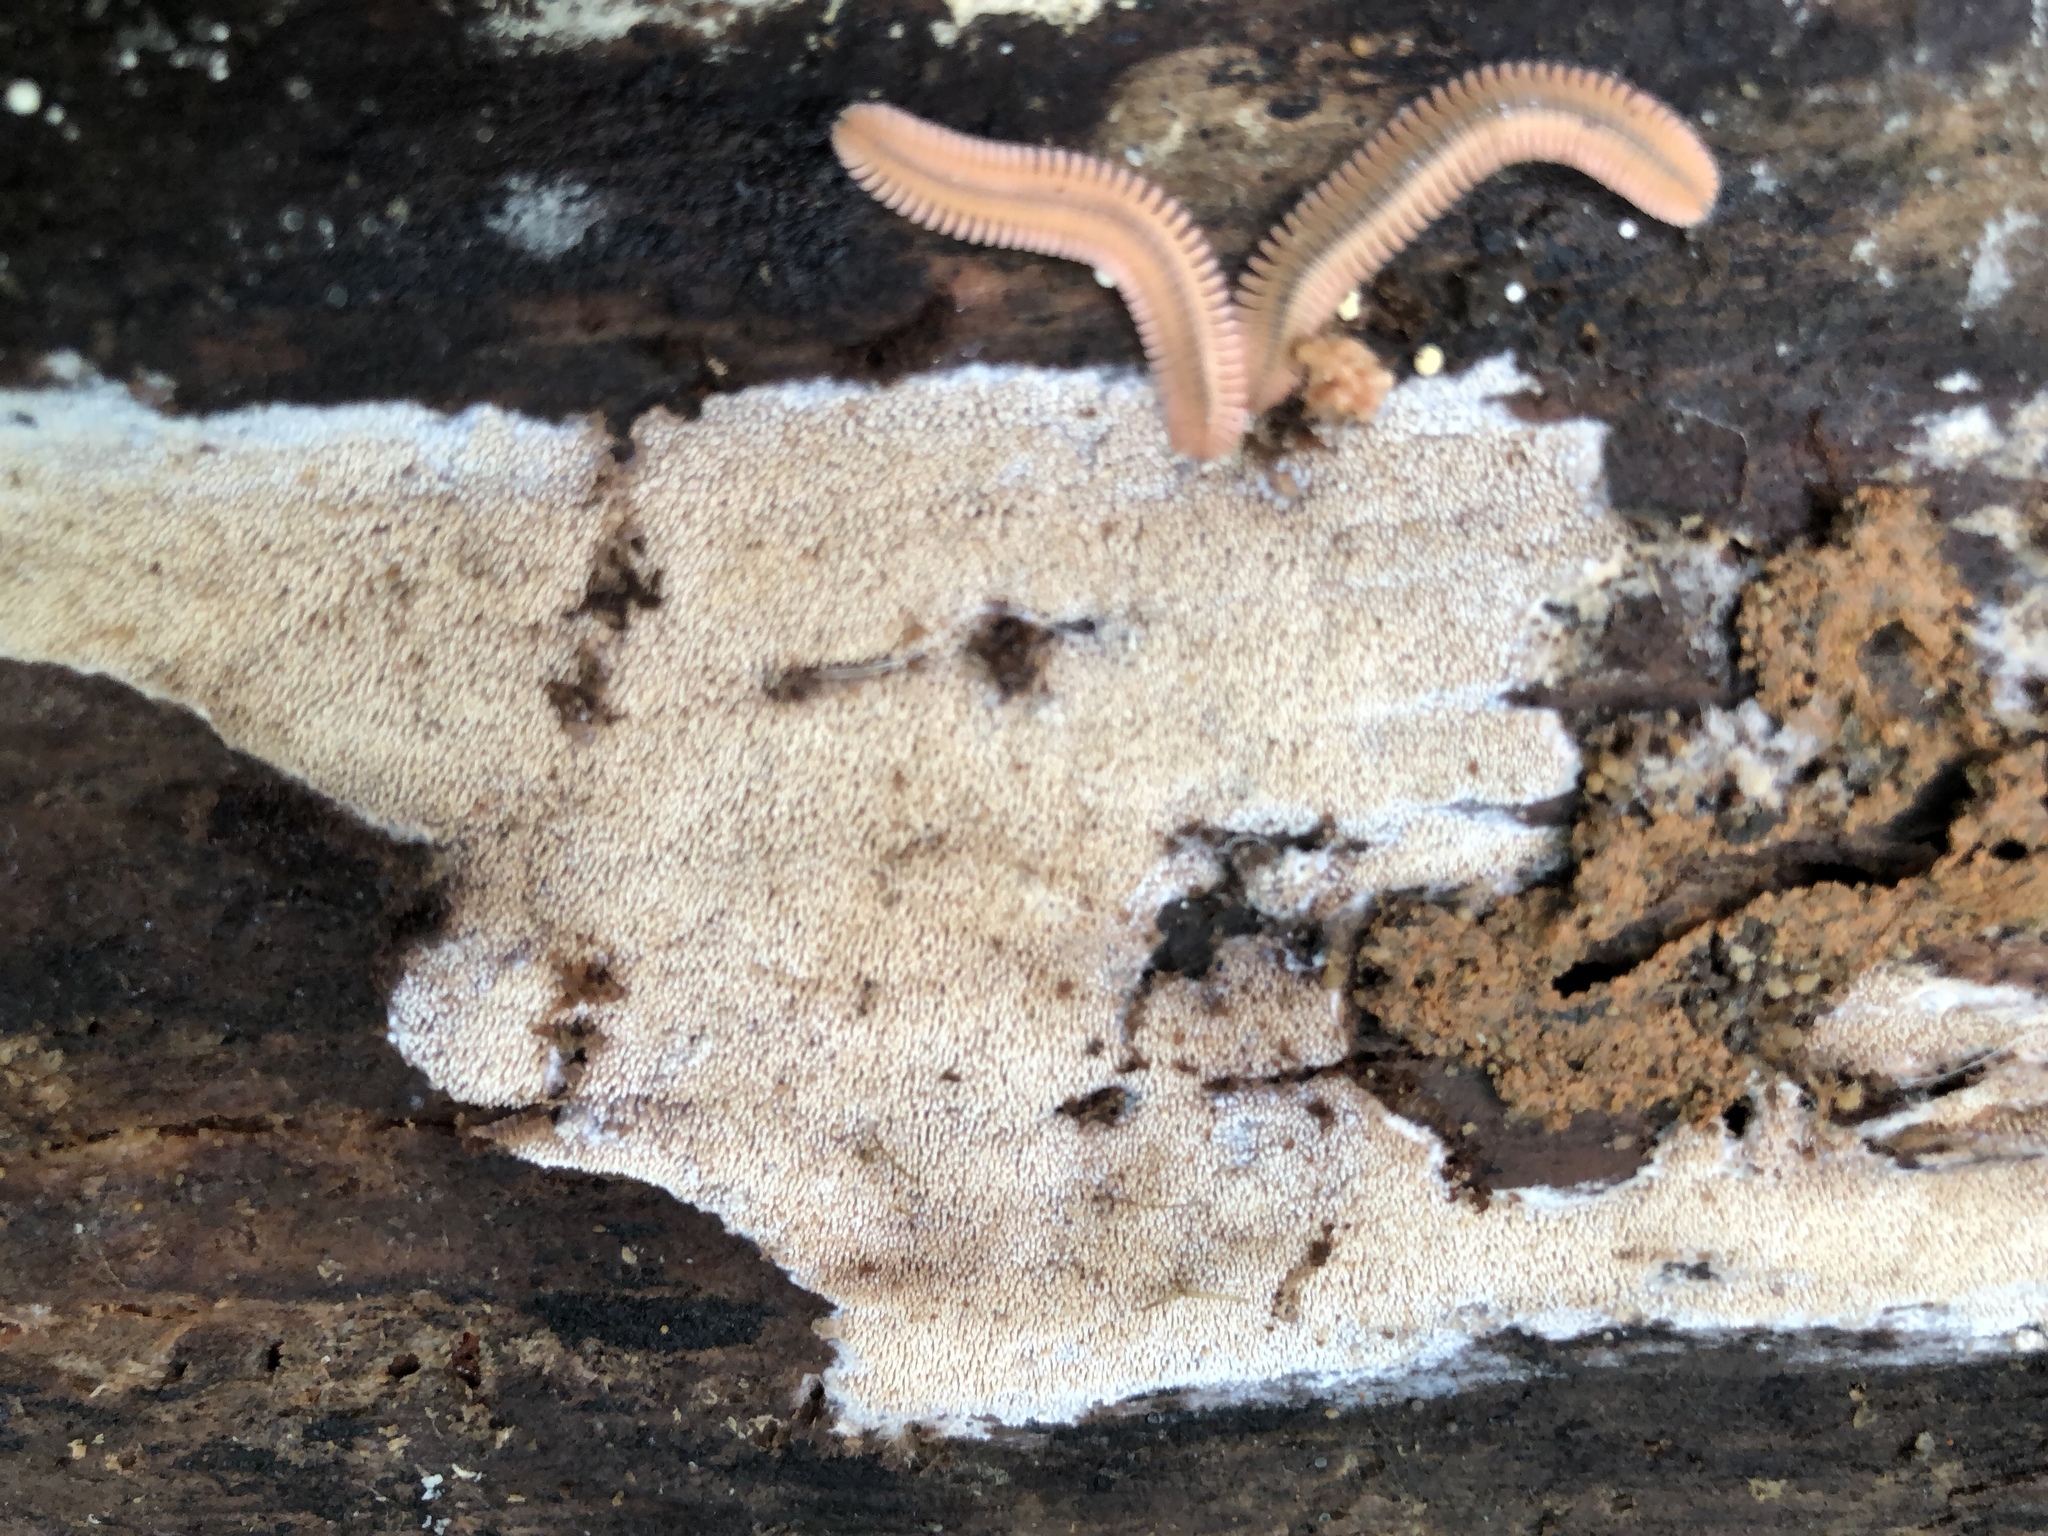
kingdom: Animalia
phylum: Arthropoda
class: Diplopoda
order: Platydesmida
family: Andrognathidae
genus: Brachycybe
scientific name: Brachycybe lecontii
